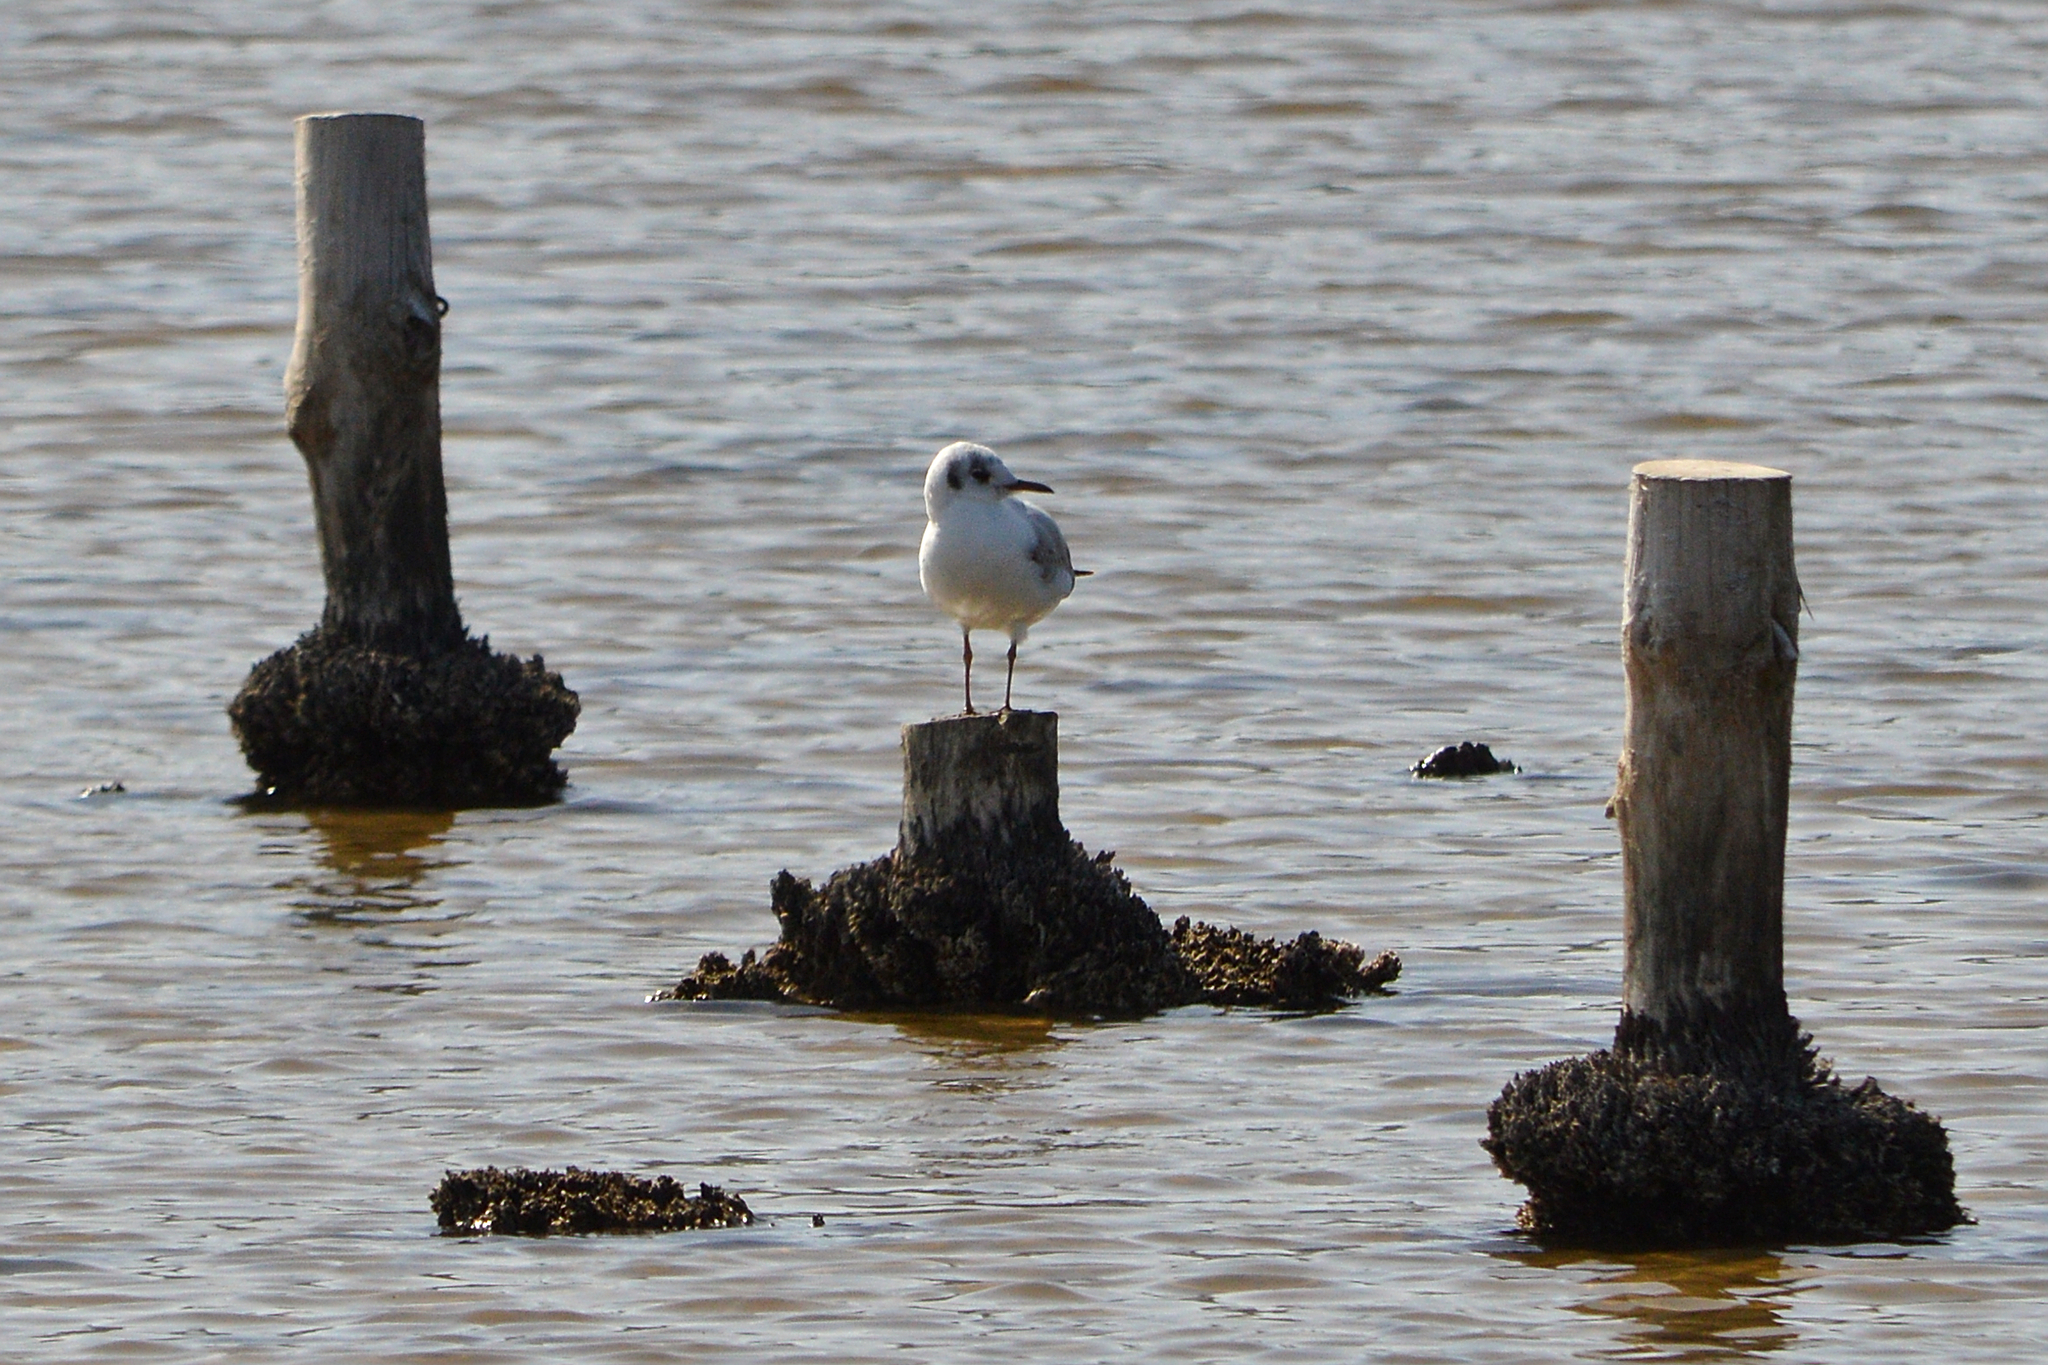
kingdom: Animalia
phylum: Chordata
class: Aves
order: Charadriiformes
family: Laridae
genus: Chroicocephalus
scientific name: Chroicocephalus ridibundus
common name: Black-headed gull
